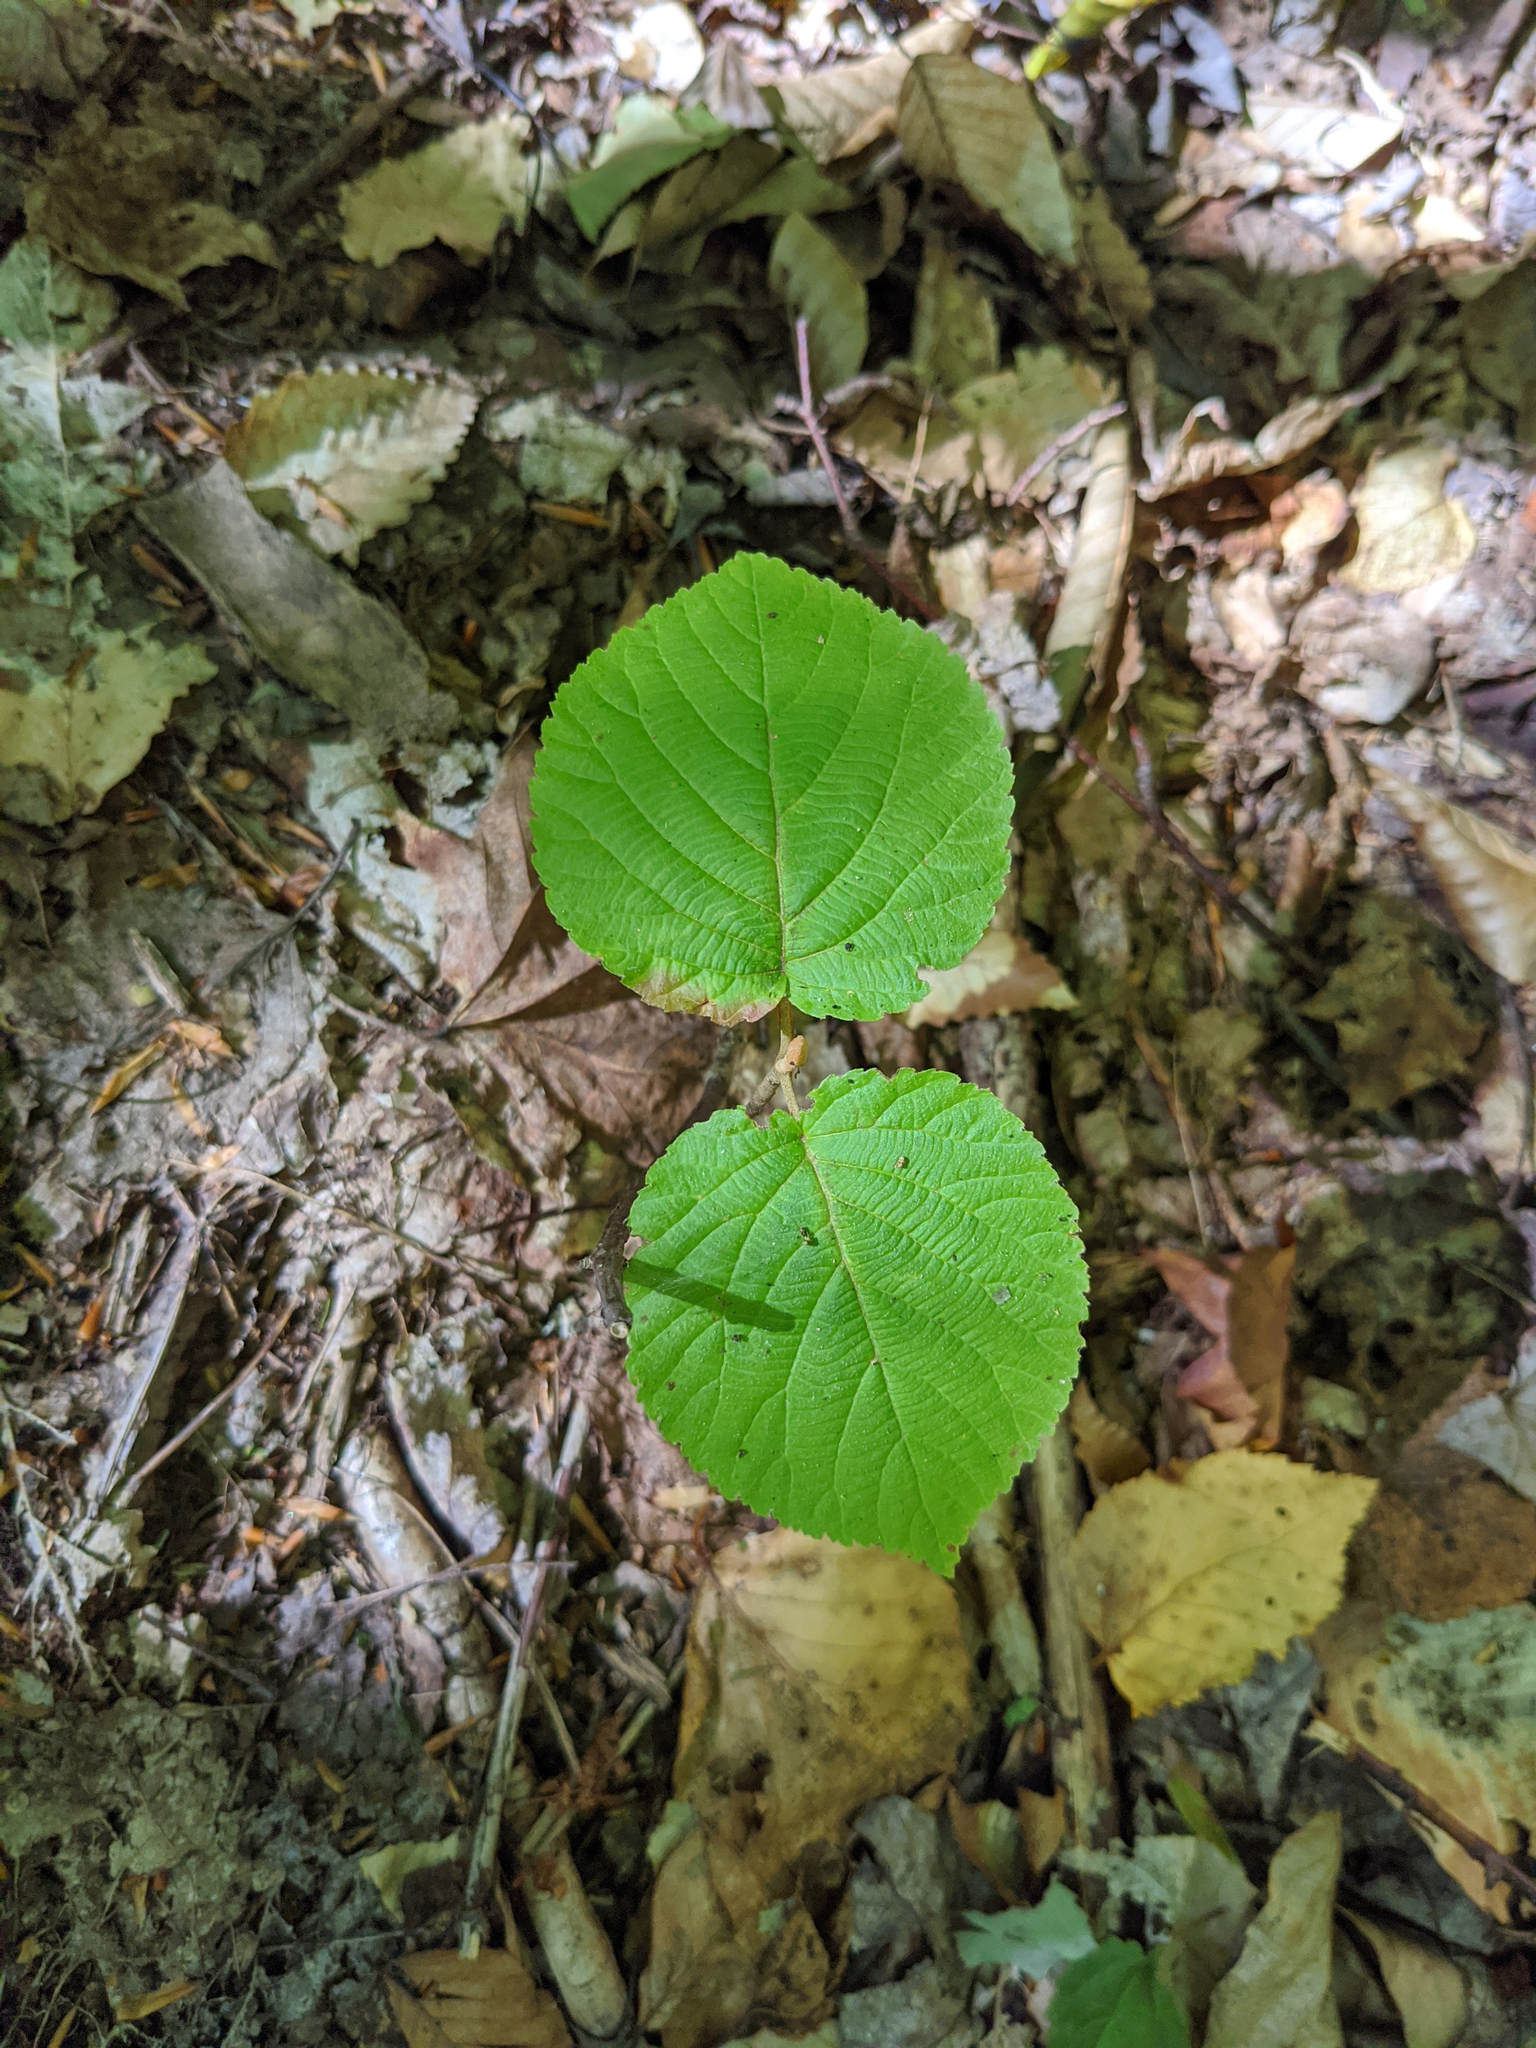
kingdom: Plantae
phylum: Tracheophyta
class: Magnoliopsida
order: Dipsacales
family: Viburnaceae
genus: Viburnum
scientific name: Viburnum lantanoides
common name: Hobblebush
